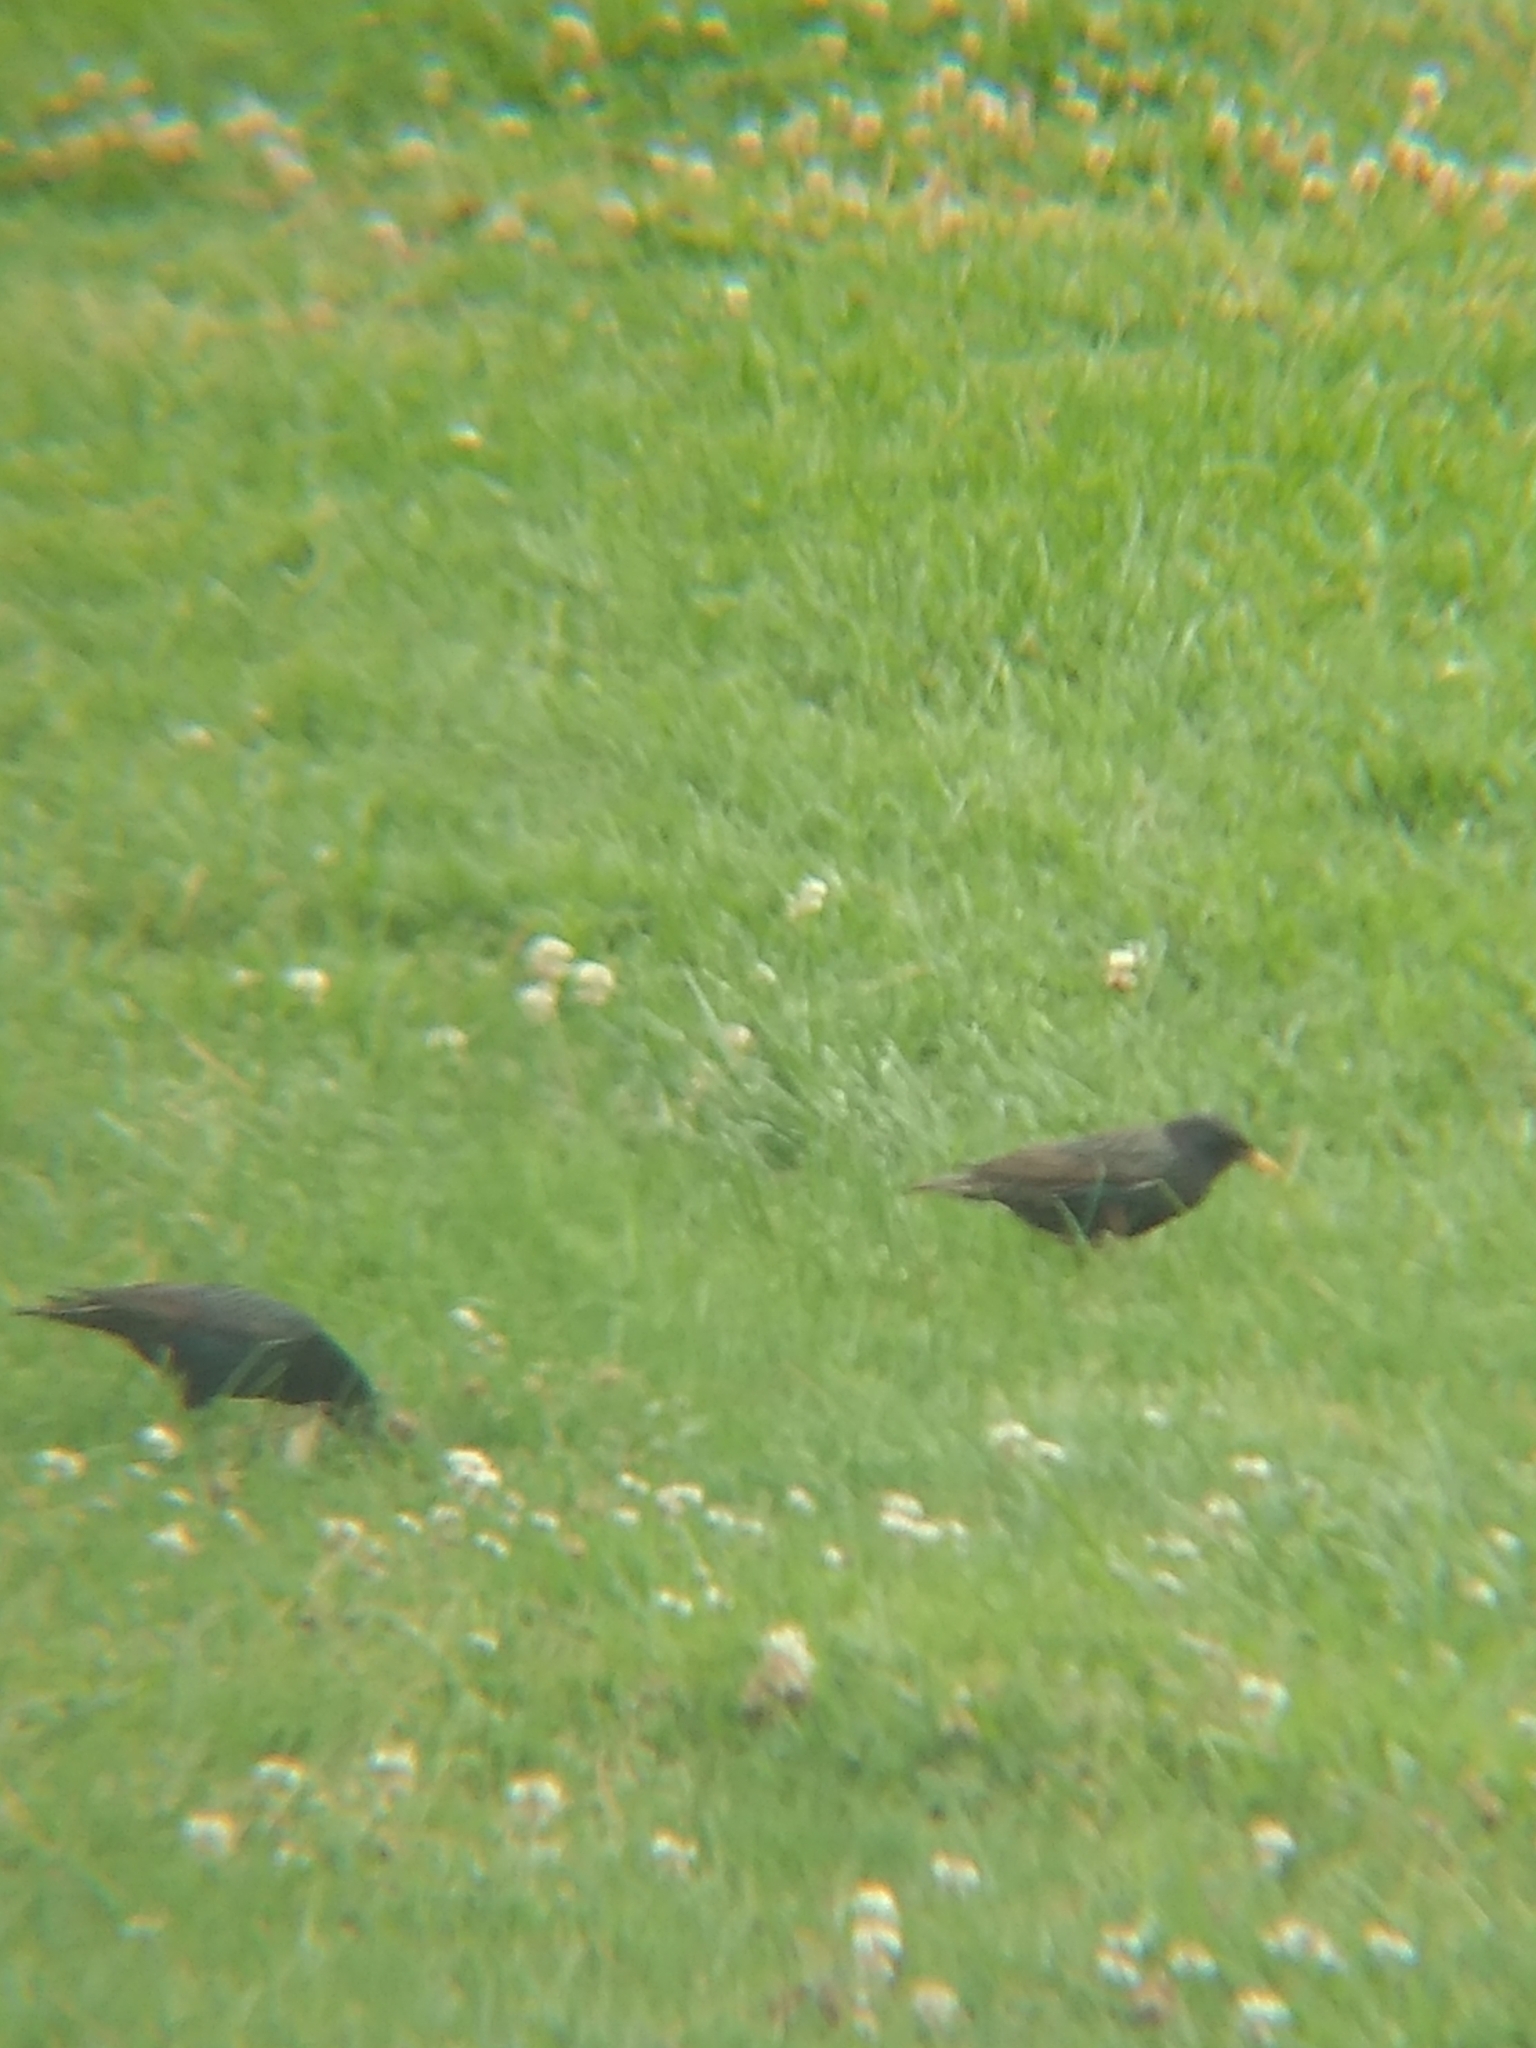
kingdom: Animalia
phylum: Chordata
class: Aves
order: Passeriformes
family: Sturnidae
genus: Sturnus
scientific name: Sturnus vulgaris
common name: Common starling
